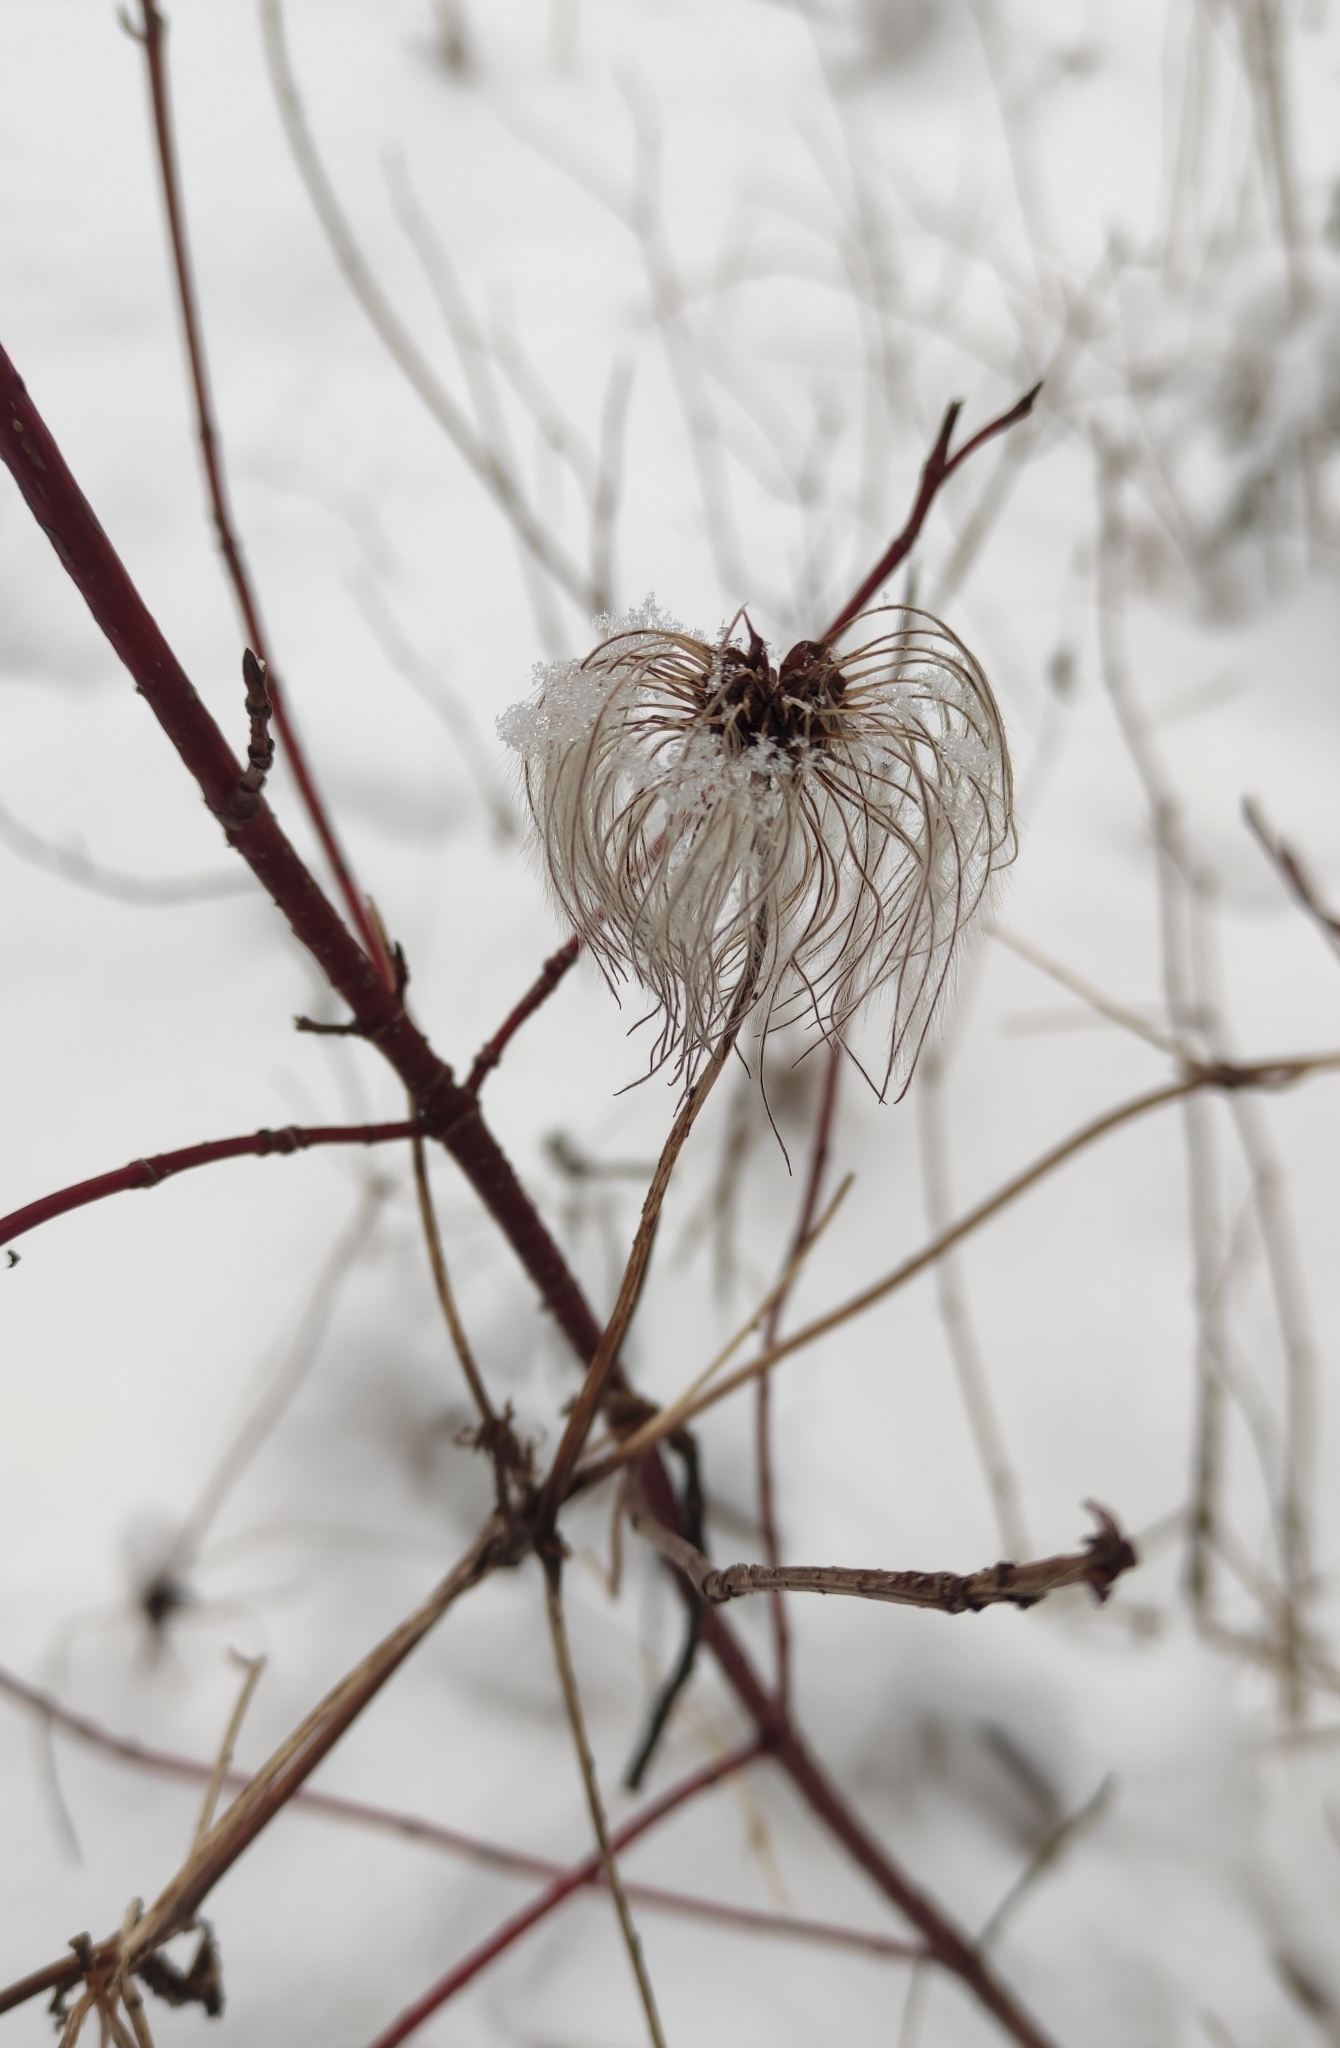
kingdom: Plantae
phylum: Tracheophyta
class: Magnoliopsida
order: Ranunculales
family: Ranunculaceae
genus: Clematis
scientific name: Clematis sibirica
